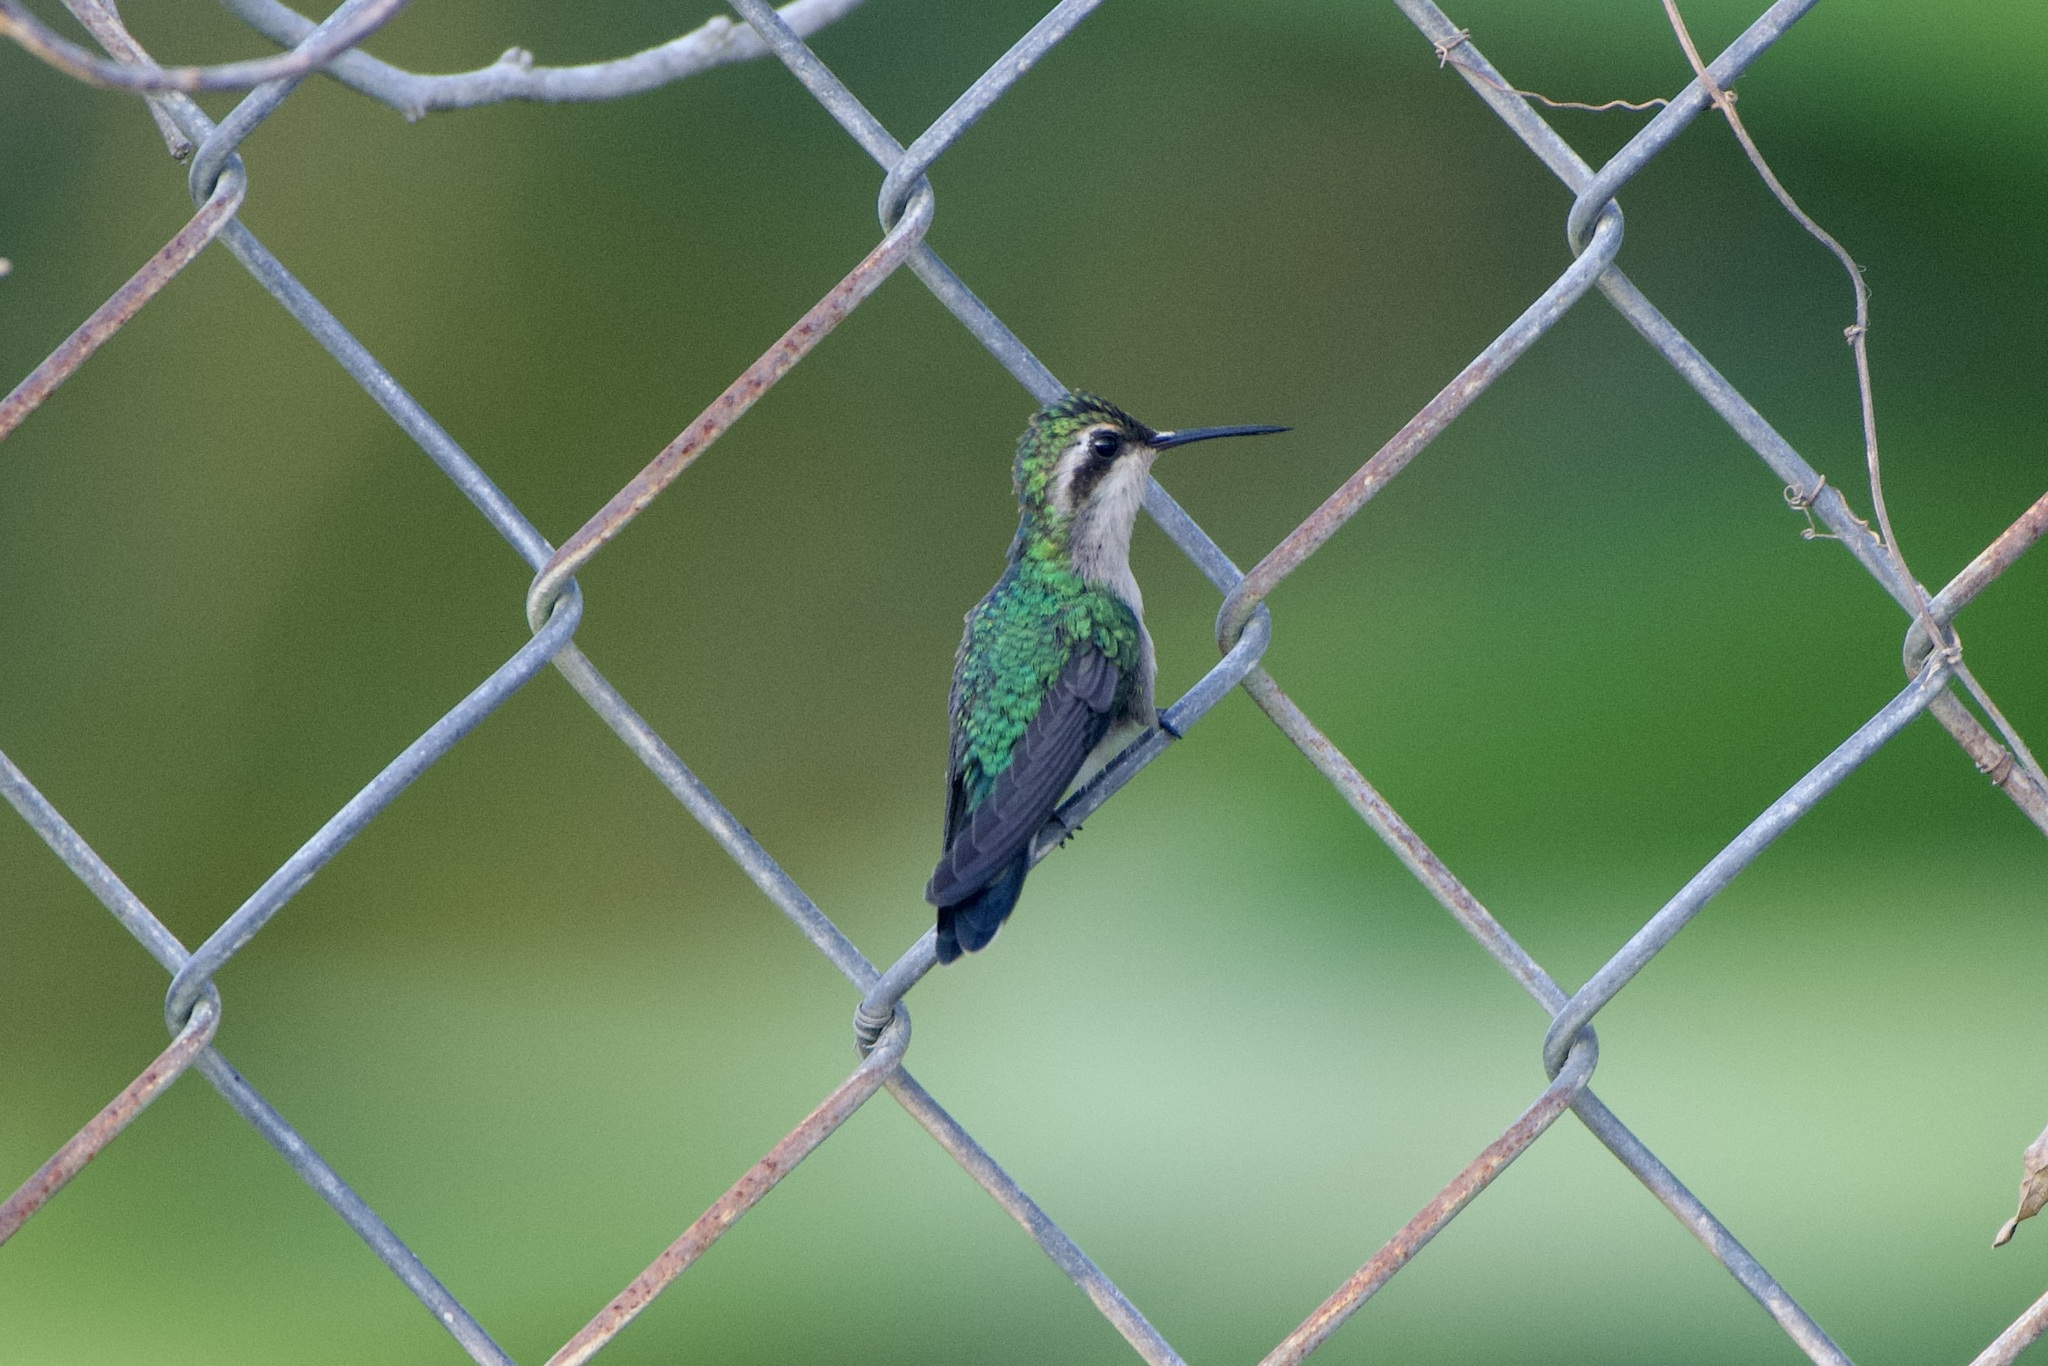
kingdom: Animalia
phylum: Chordata
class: Aves
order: Apodiformes
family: Trochilidae
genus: Cynanthus
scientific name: Cynanthus forficatus
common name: Cozumel emerald
